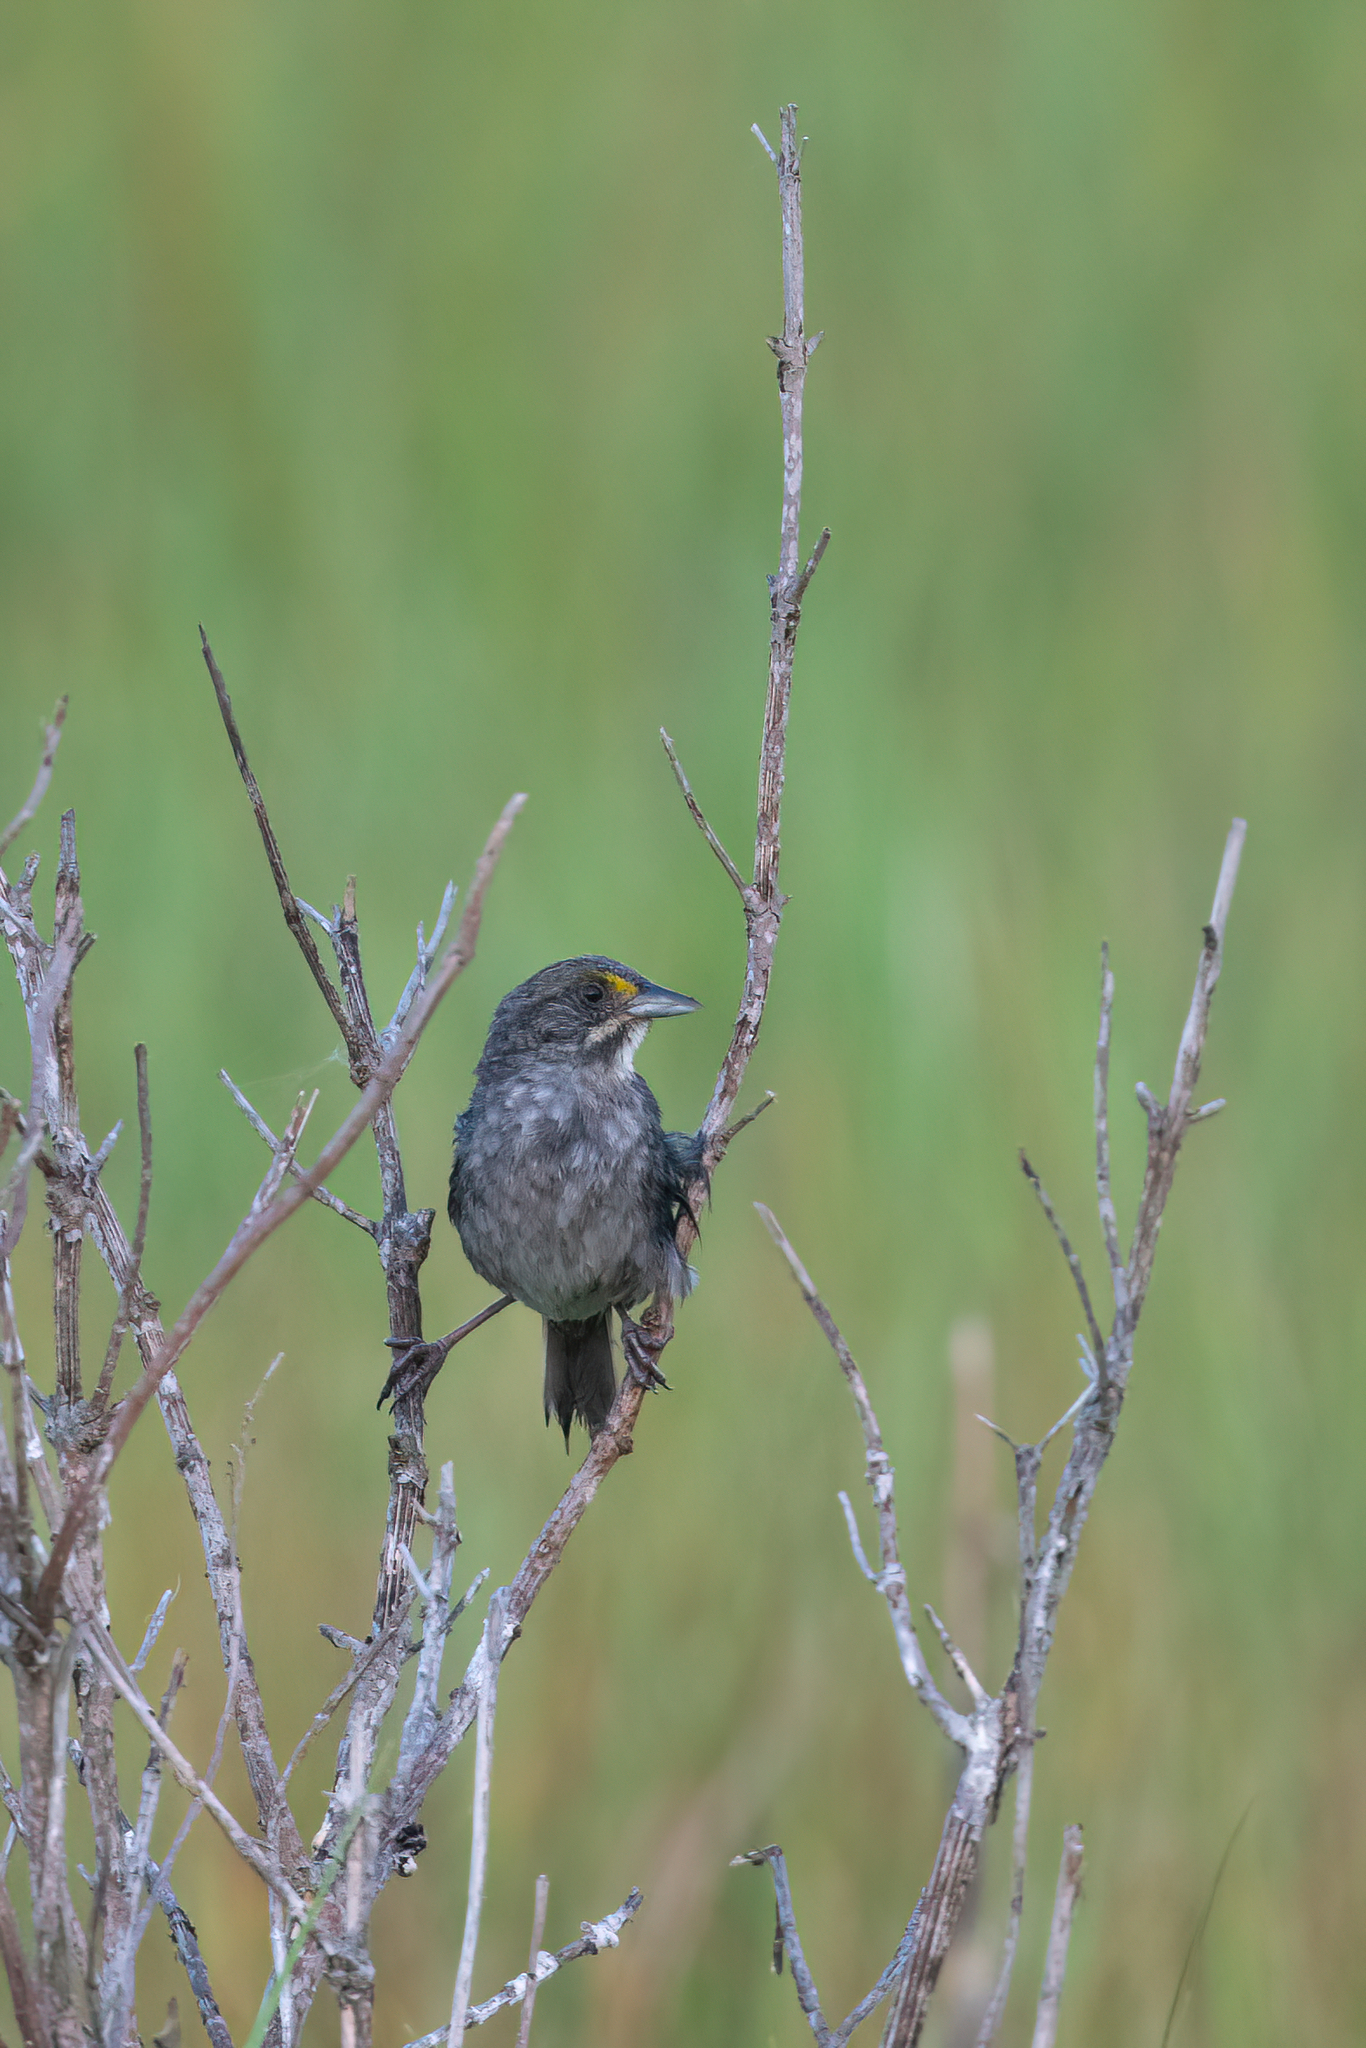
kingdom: Animalia
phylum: Chordata
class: Aves
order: Passeriformes
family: Passerellidae
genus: Ammospiza
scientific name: Ammospiza maritima
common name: Seaside sparrow
